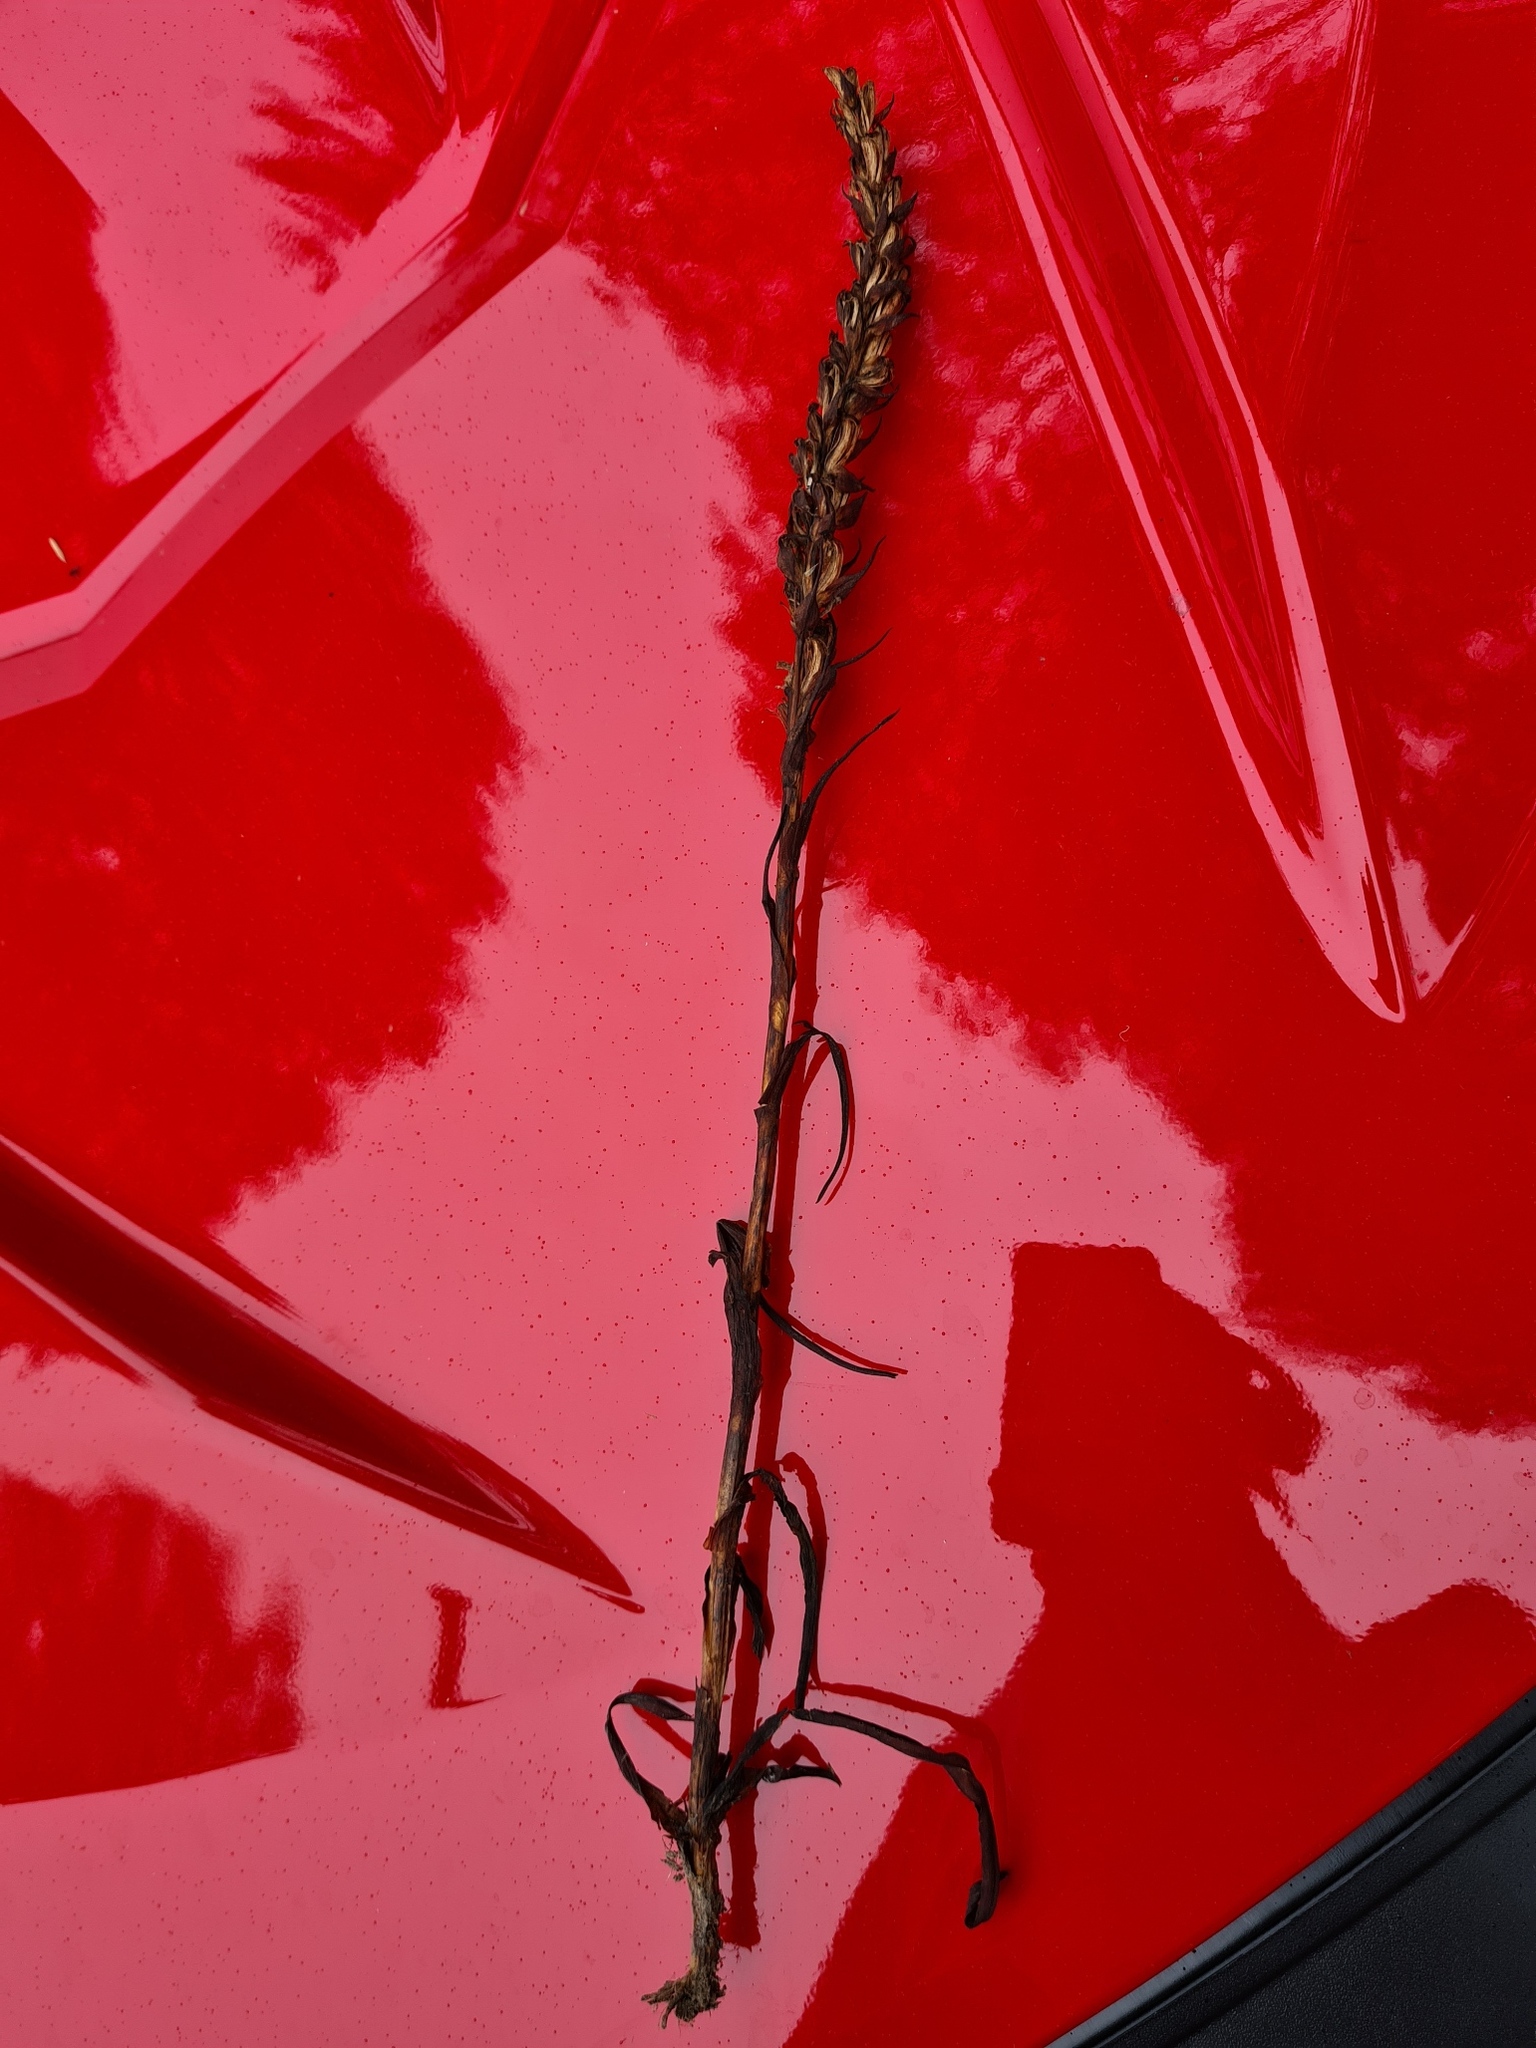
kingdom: Plantae
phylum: Tracheophyta
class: Liliopsida
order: Asparagales
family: Orchidaceae
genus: Disa
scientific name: Disa bracteata
